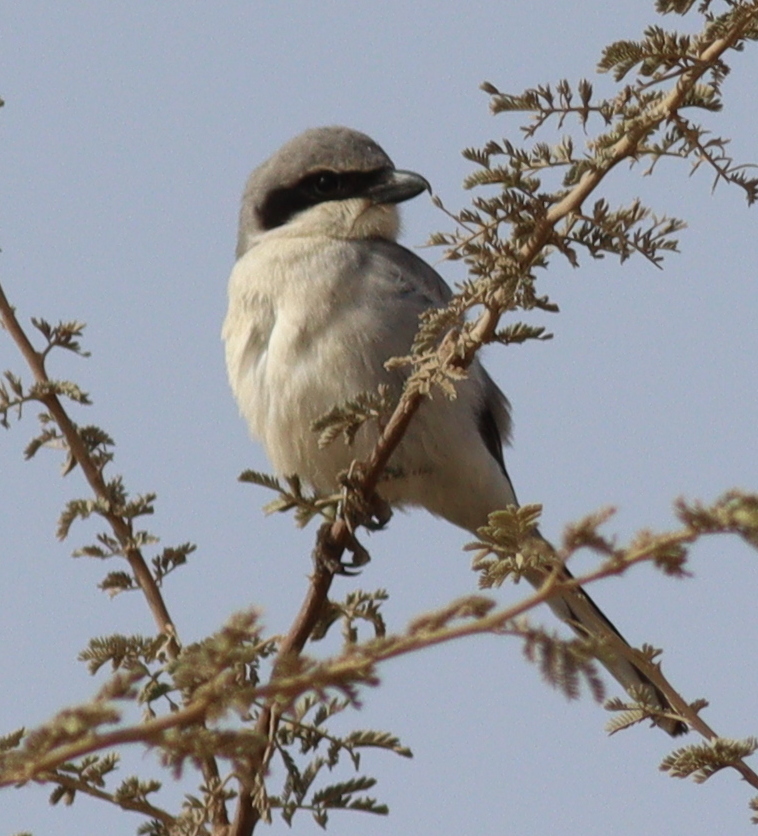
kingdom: Animalia
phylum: Chordata
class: Aves
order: Passeriformes
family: Laniidae
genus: Lanius
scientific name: Lanius excubitor
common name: Great grey shrike
